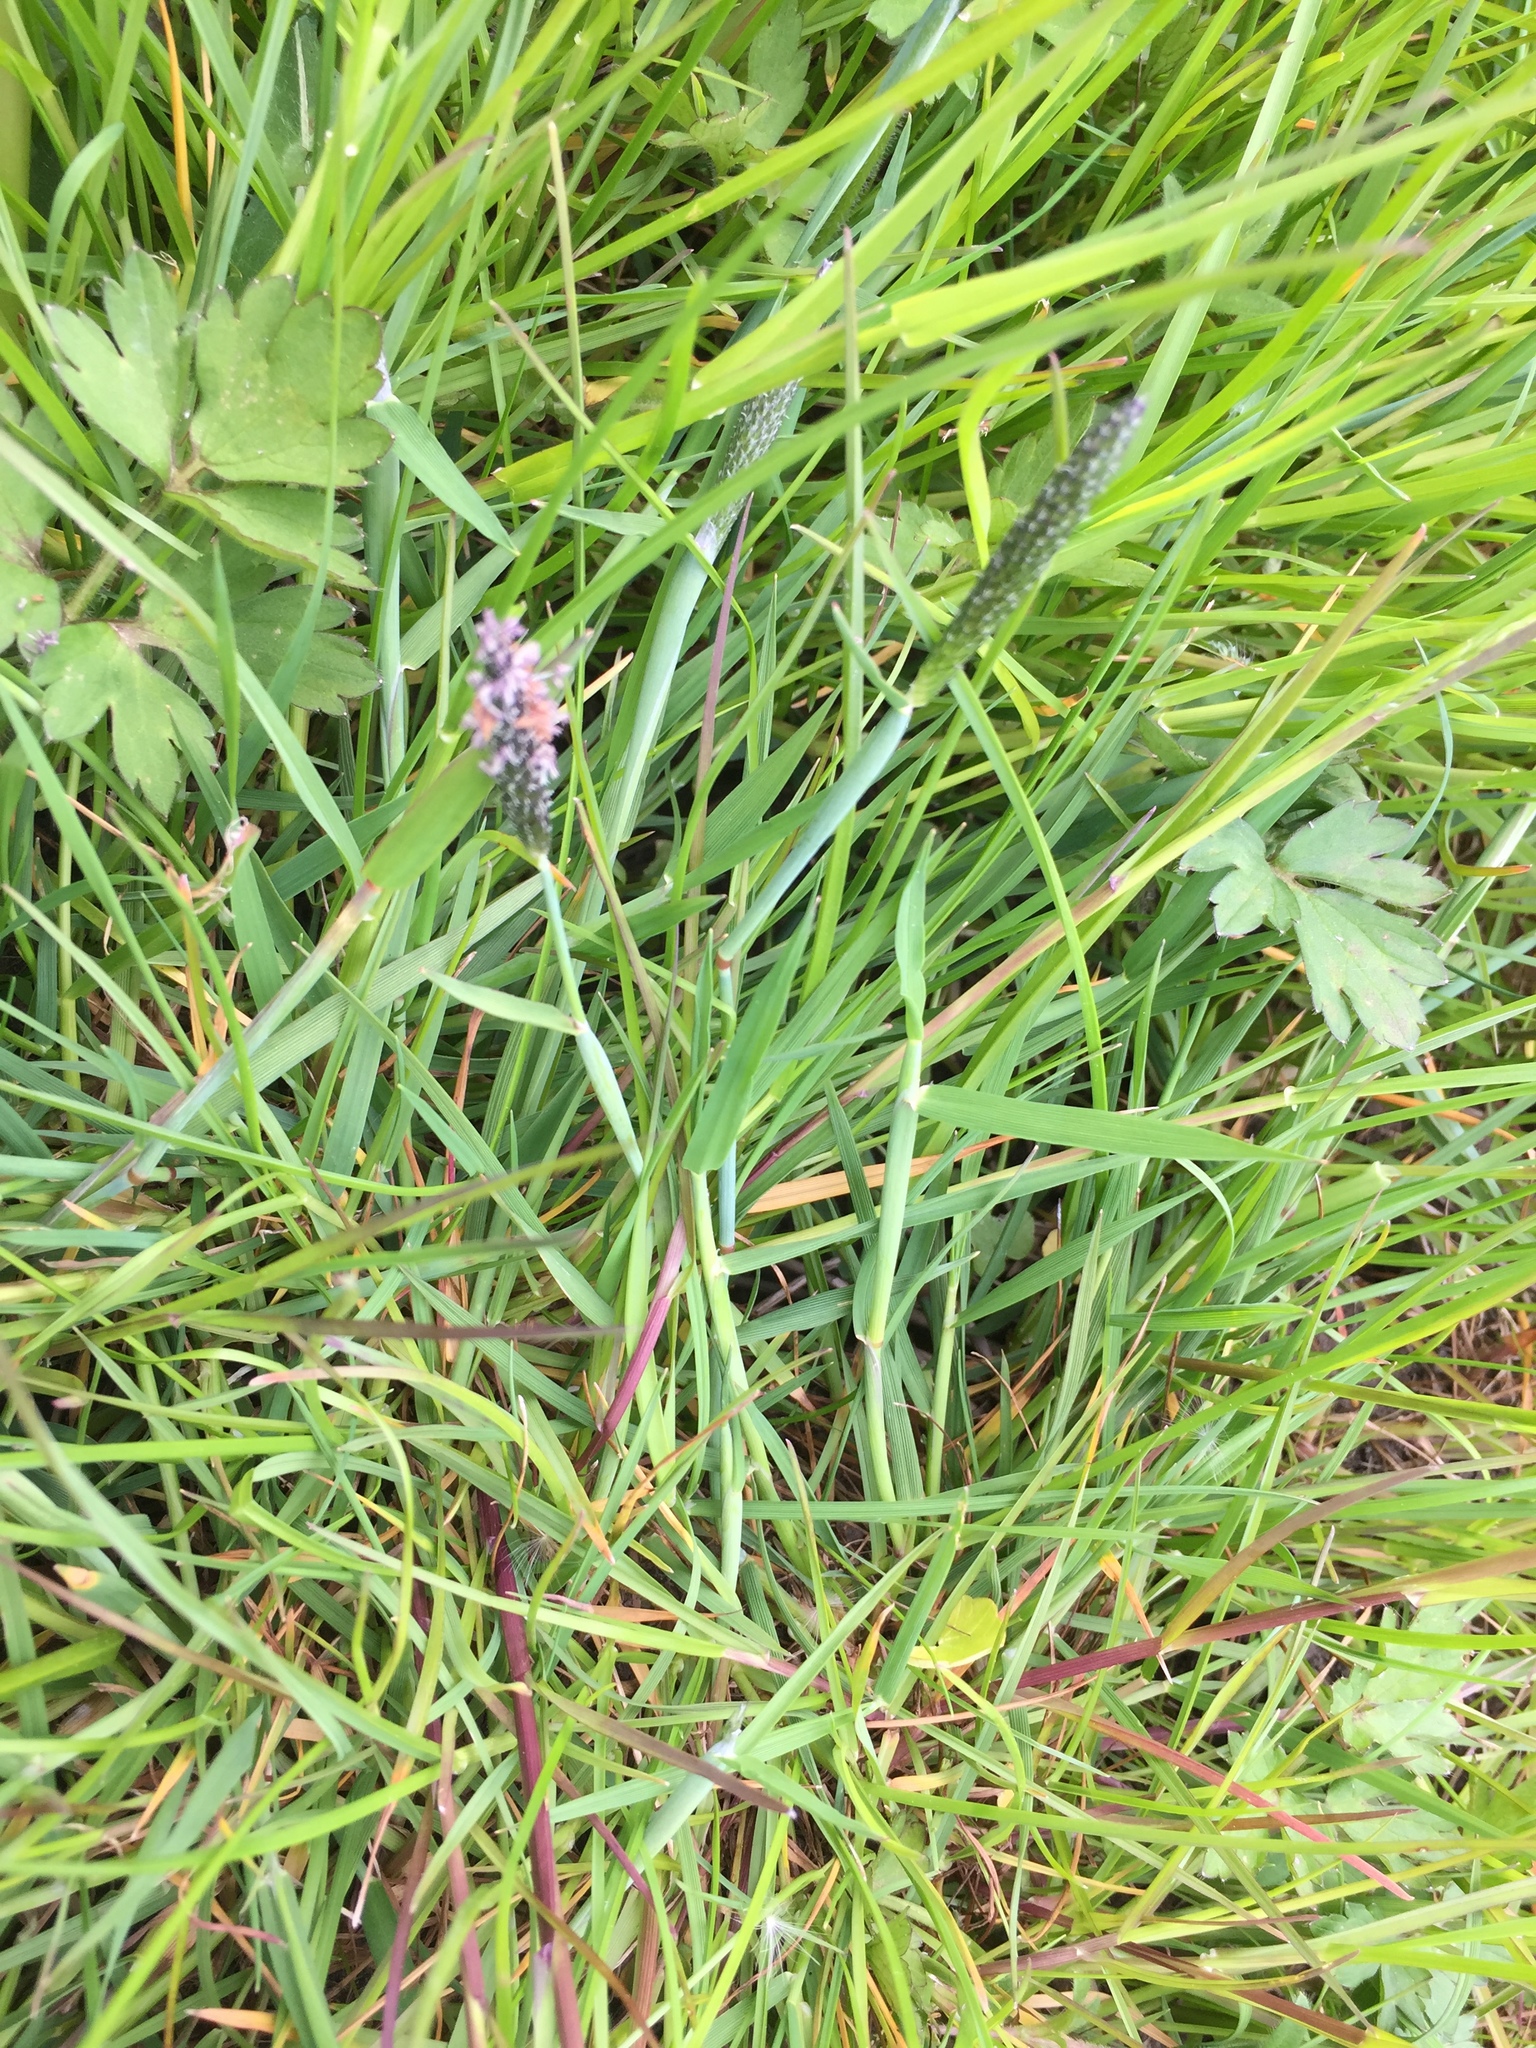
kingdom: Plantae
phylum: Tracheophyta
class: Liliopsida
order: Poales
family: Poaceae
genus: Alopecurus
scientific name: Alopecurus geniculatus
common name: Water foxtail
